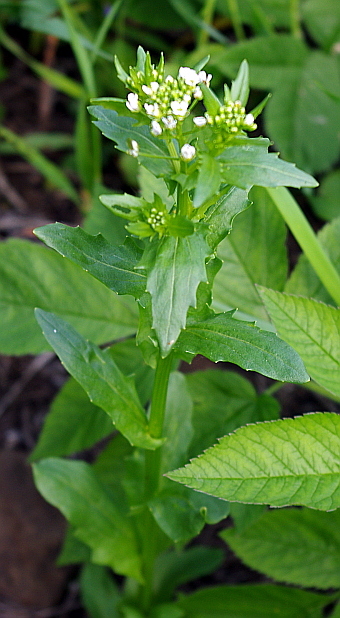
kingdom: Plantae
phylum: Tracheophyta
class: Magnoliopsida
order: Brassicales
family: Brassicaceae
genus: Thlaspi
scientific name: Thlaspi arvense
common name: Field pennycress
